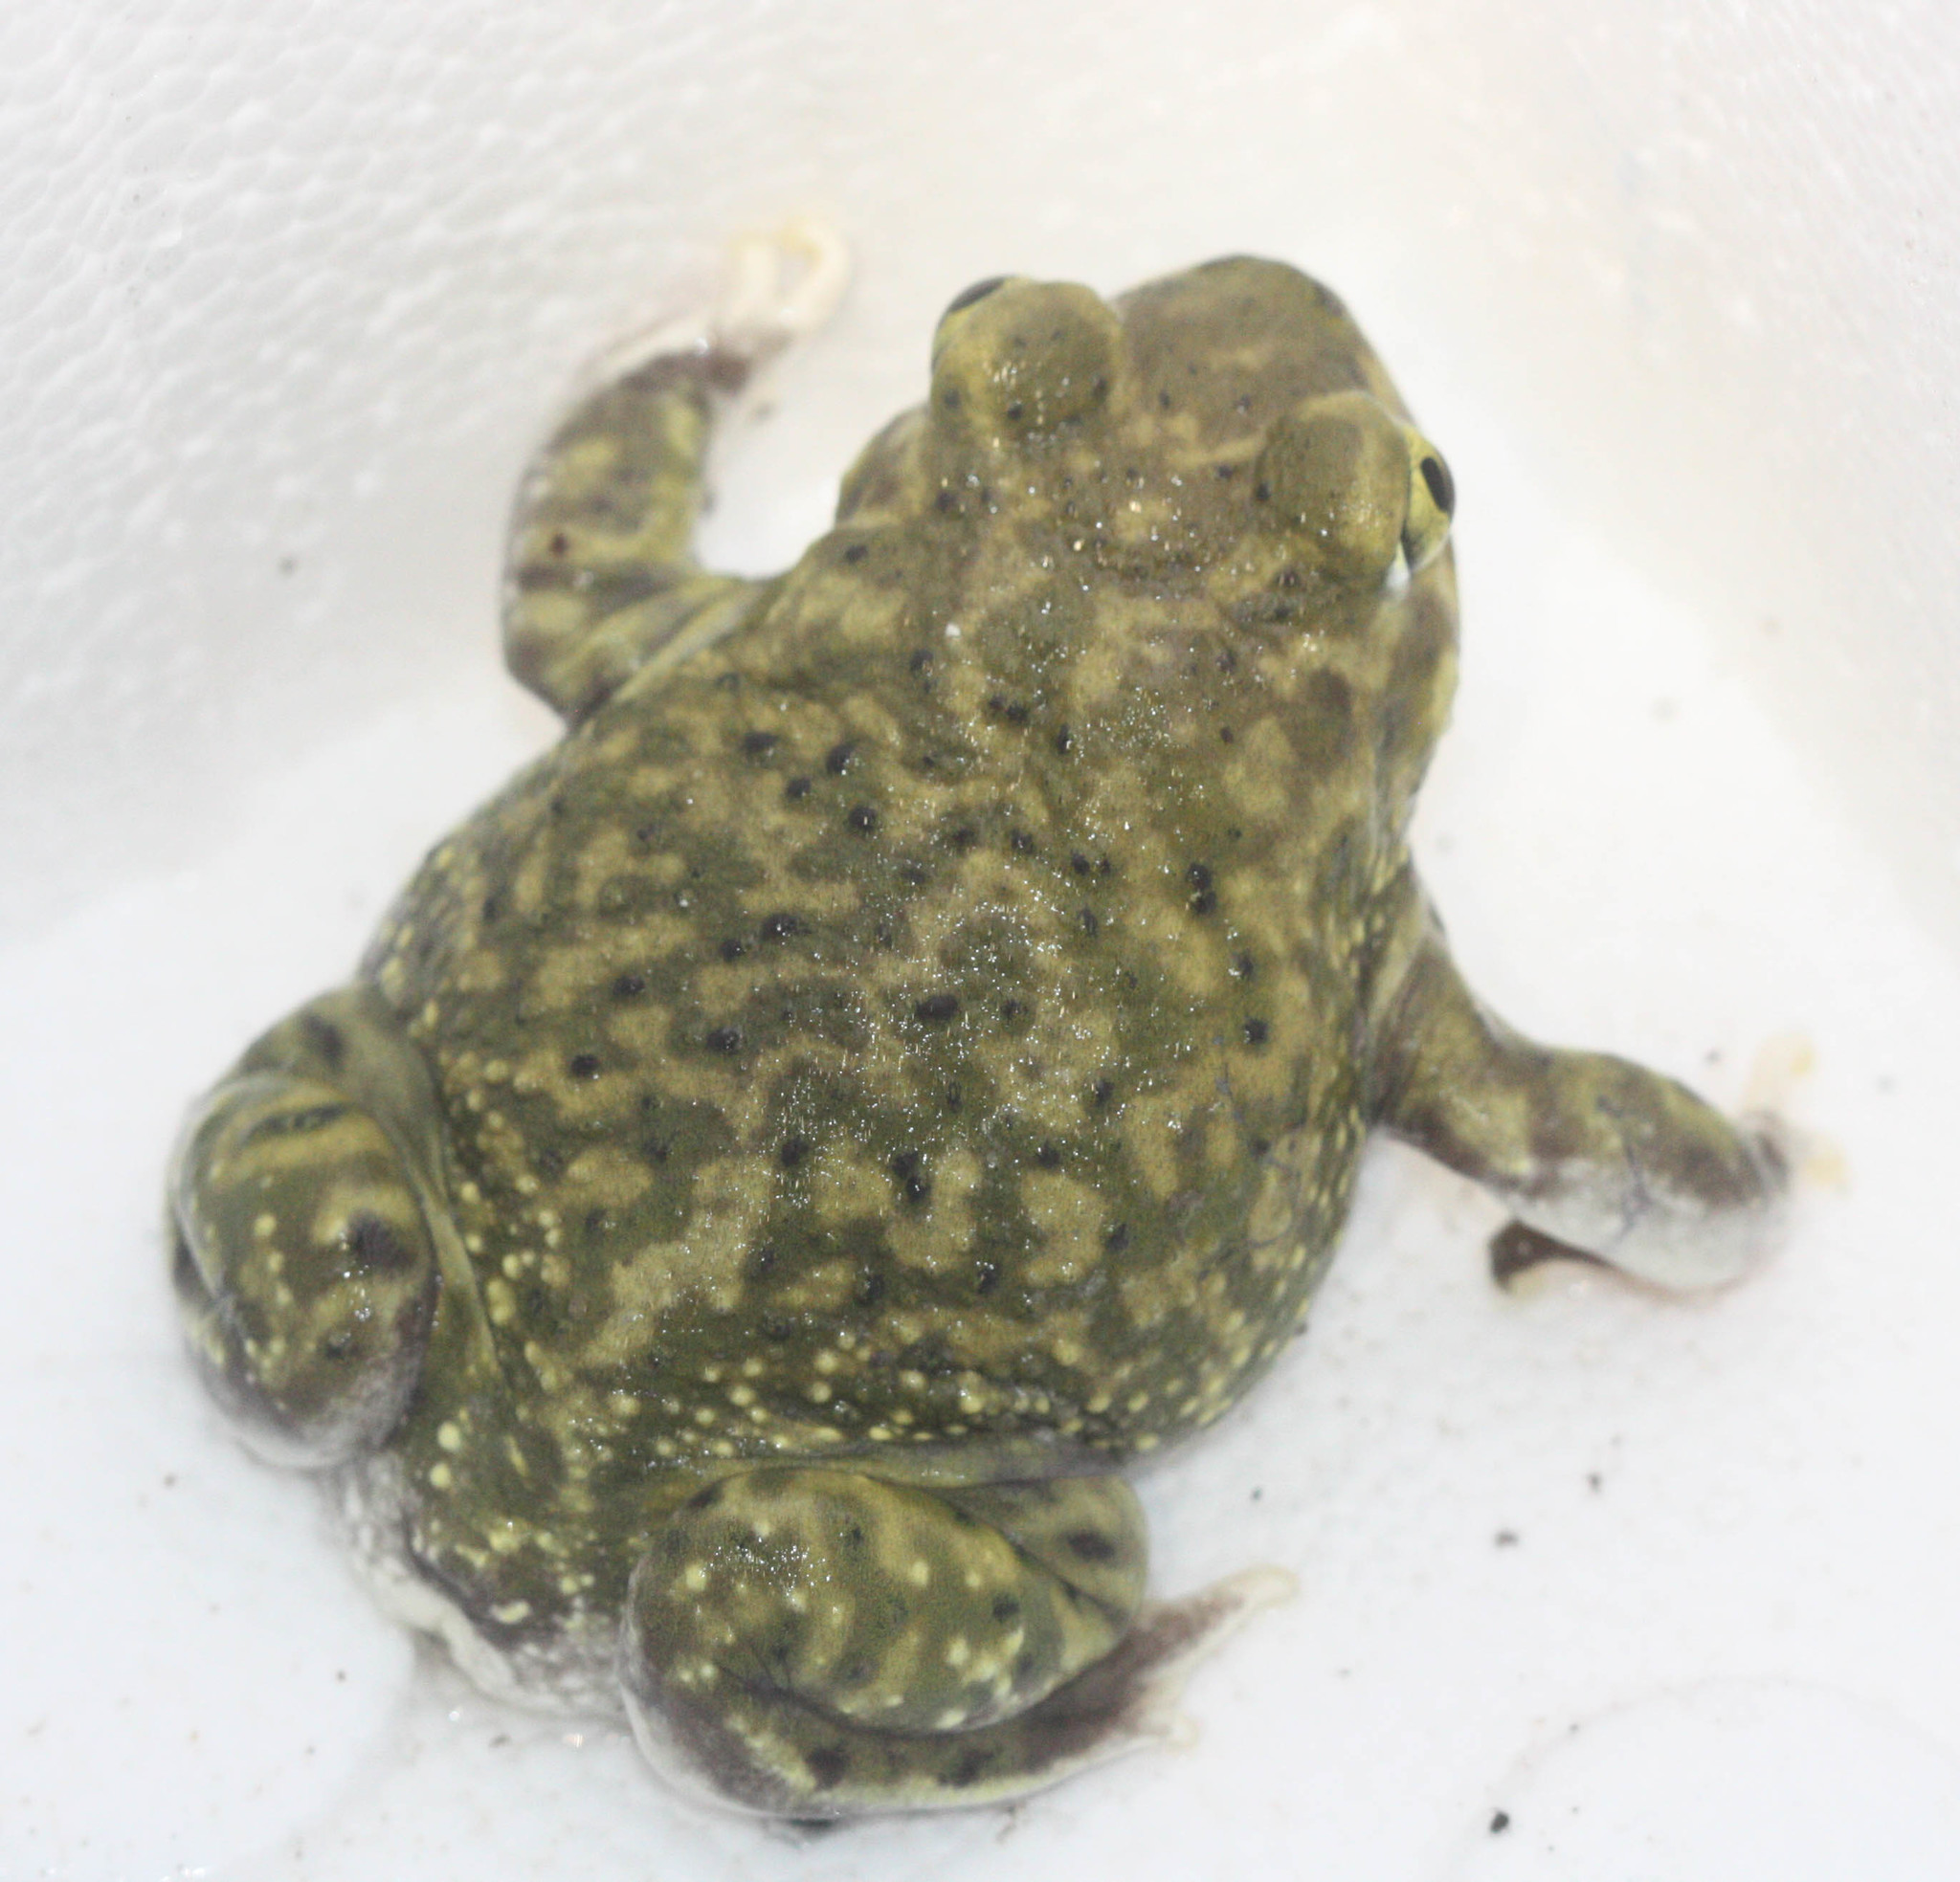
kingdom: Animalia
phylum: Chordata
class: Amphibia
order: Anura
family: Scaphiopodidae
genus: Scaphiopus
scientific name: Scaphiopus couchii
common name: Couch's spadefoot toad
